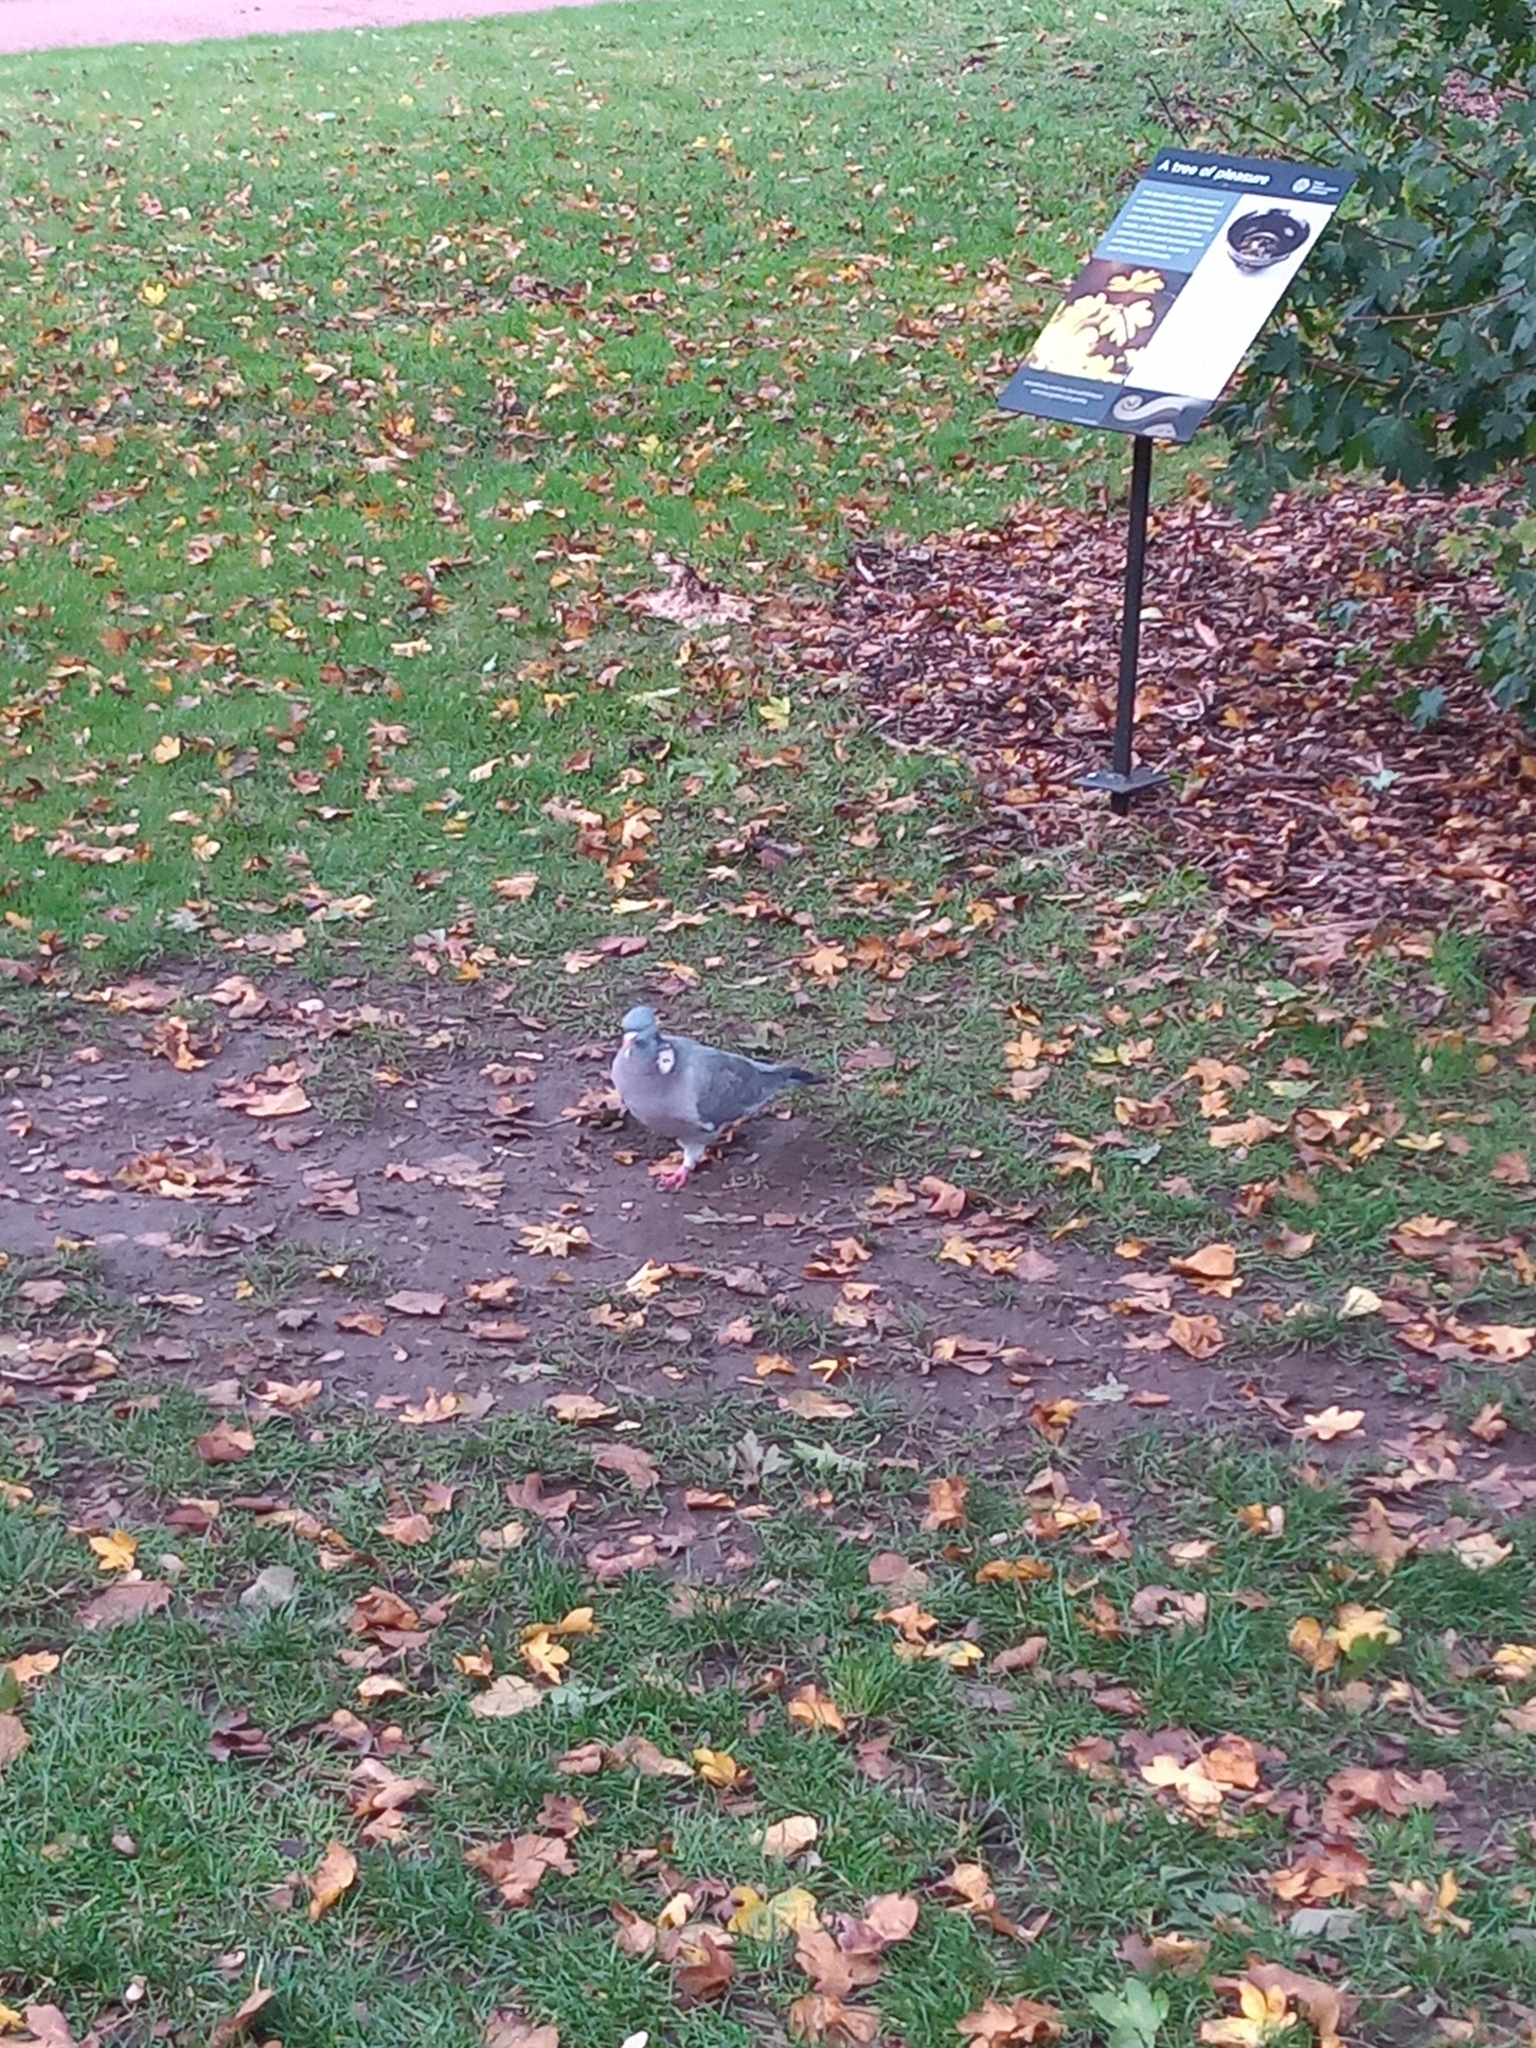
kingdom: Animalia
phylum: Chordata
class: Aves
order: Columbiformes
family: Columbidae
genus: Columba
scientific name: Columba palumbus
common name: Common wood pigeon
